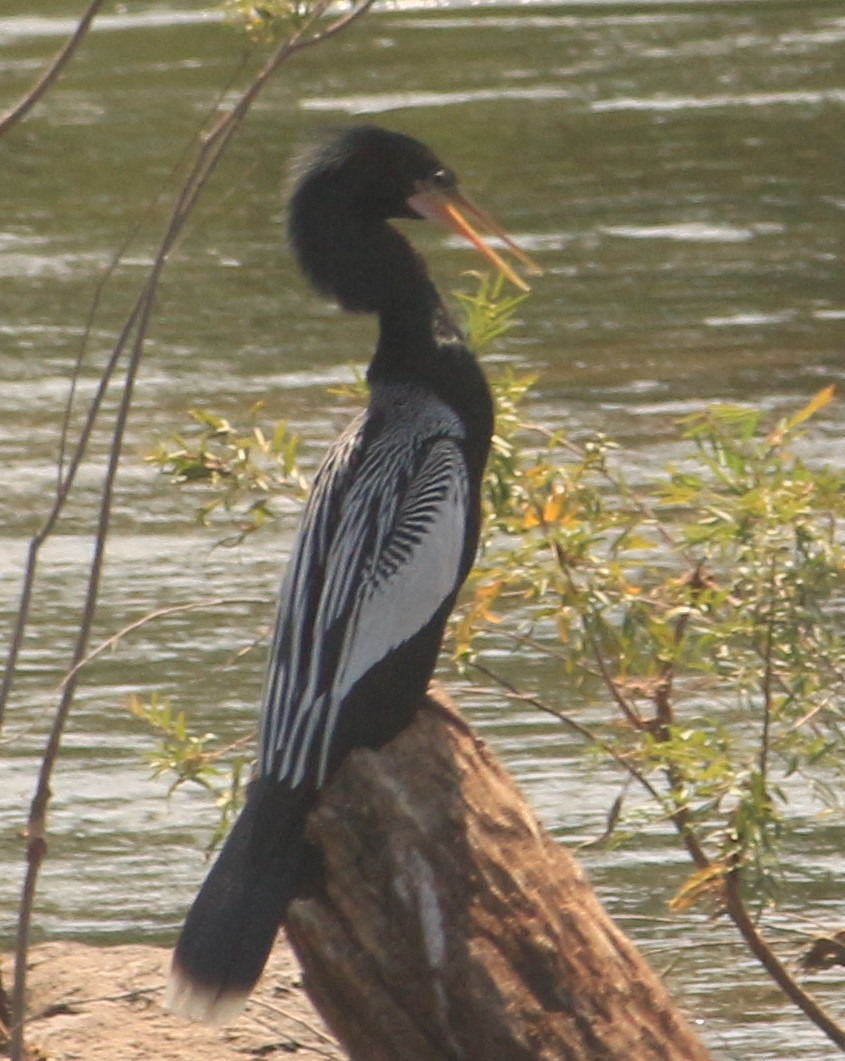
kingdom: Animalia
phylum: Chordata
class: Aves
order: Suliformes
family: Anhingidae
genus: Anhinga
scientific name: Anhinga anhinga
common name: Anhinga
